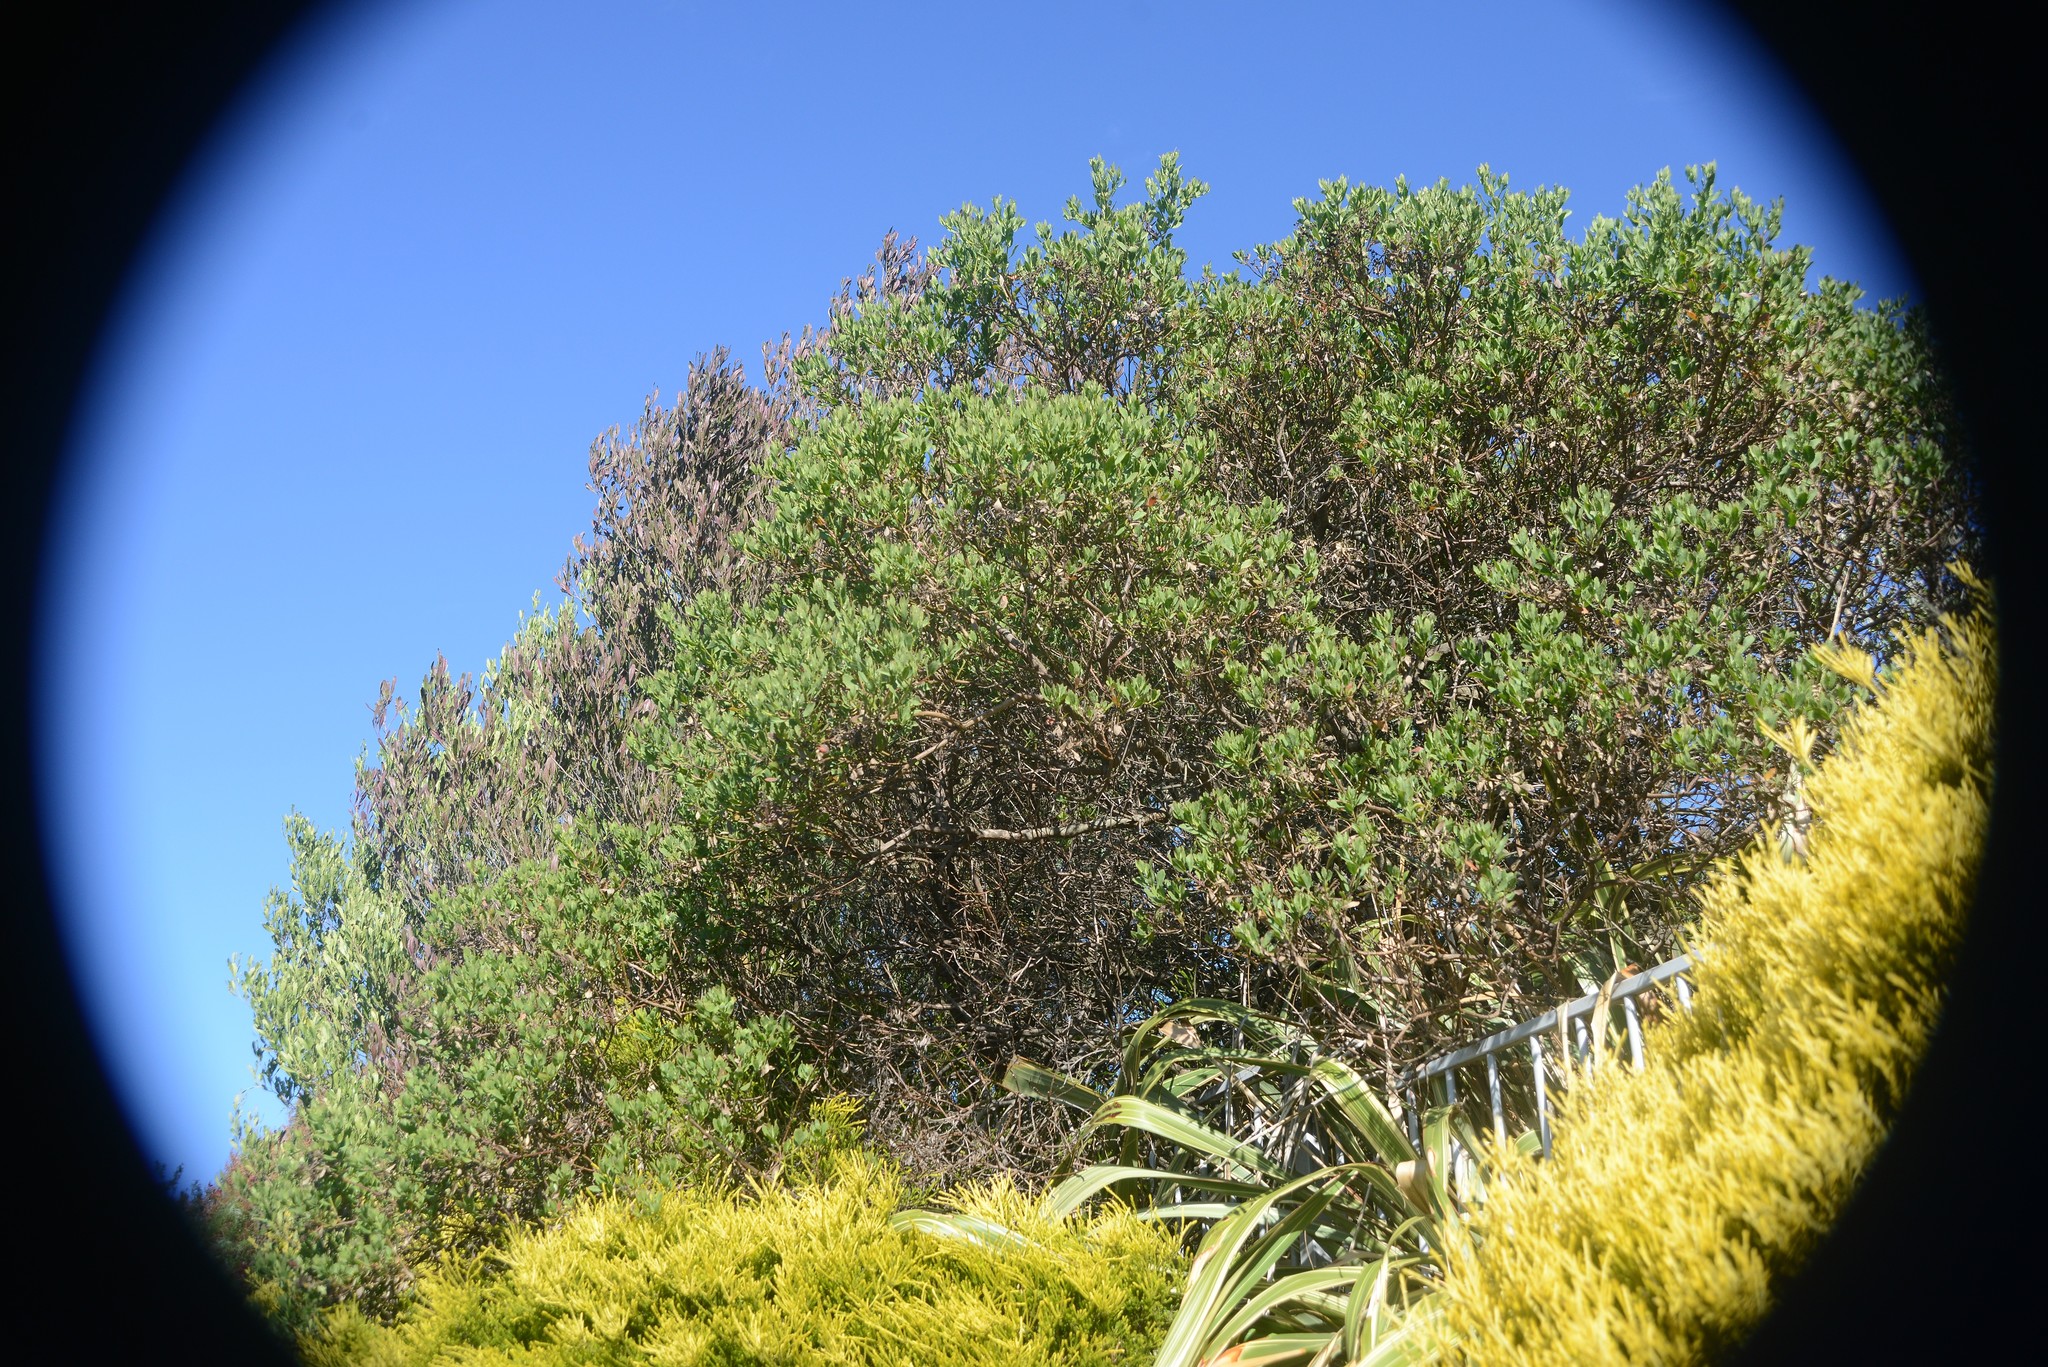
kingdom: Plantae
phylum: Tracheophyta
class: Magnoliopsida
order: Asterales
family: Asteraceae
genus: Osteospermum
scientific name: Osteospermum moniliferum
